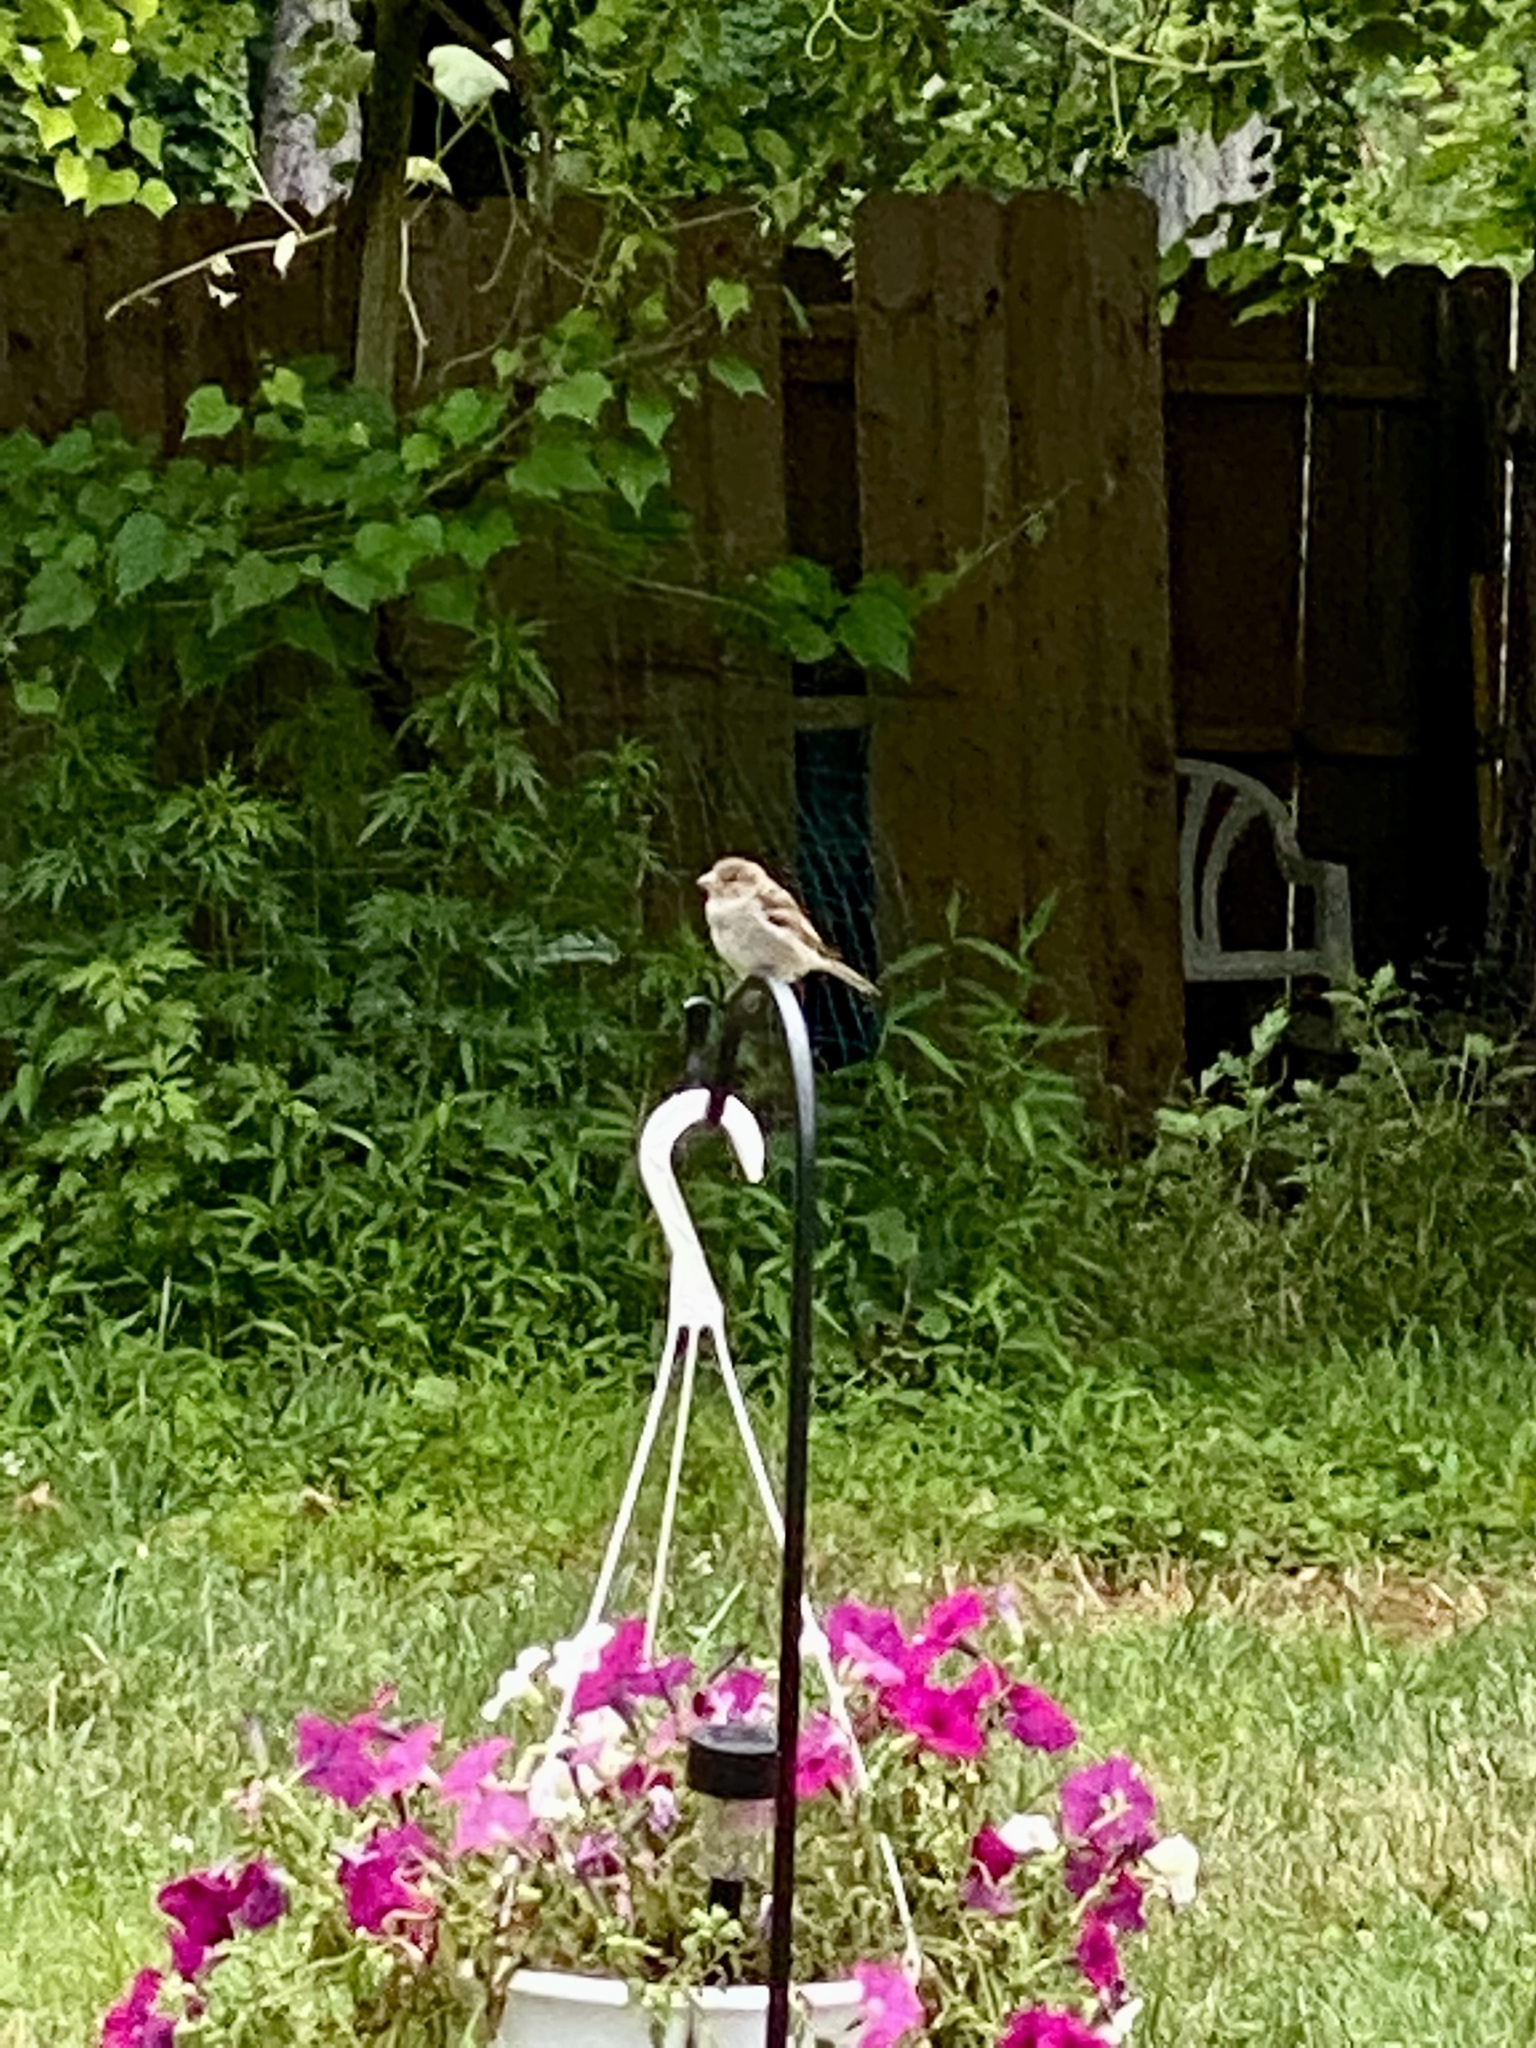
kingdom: Animalia
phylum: Chordata
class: Aves
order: Passeriformes
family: Passeridae
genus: Passer
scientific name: Passer domesticus
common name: House sparrow
